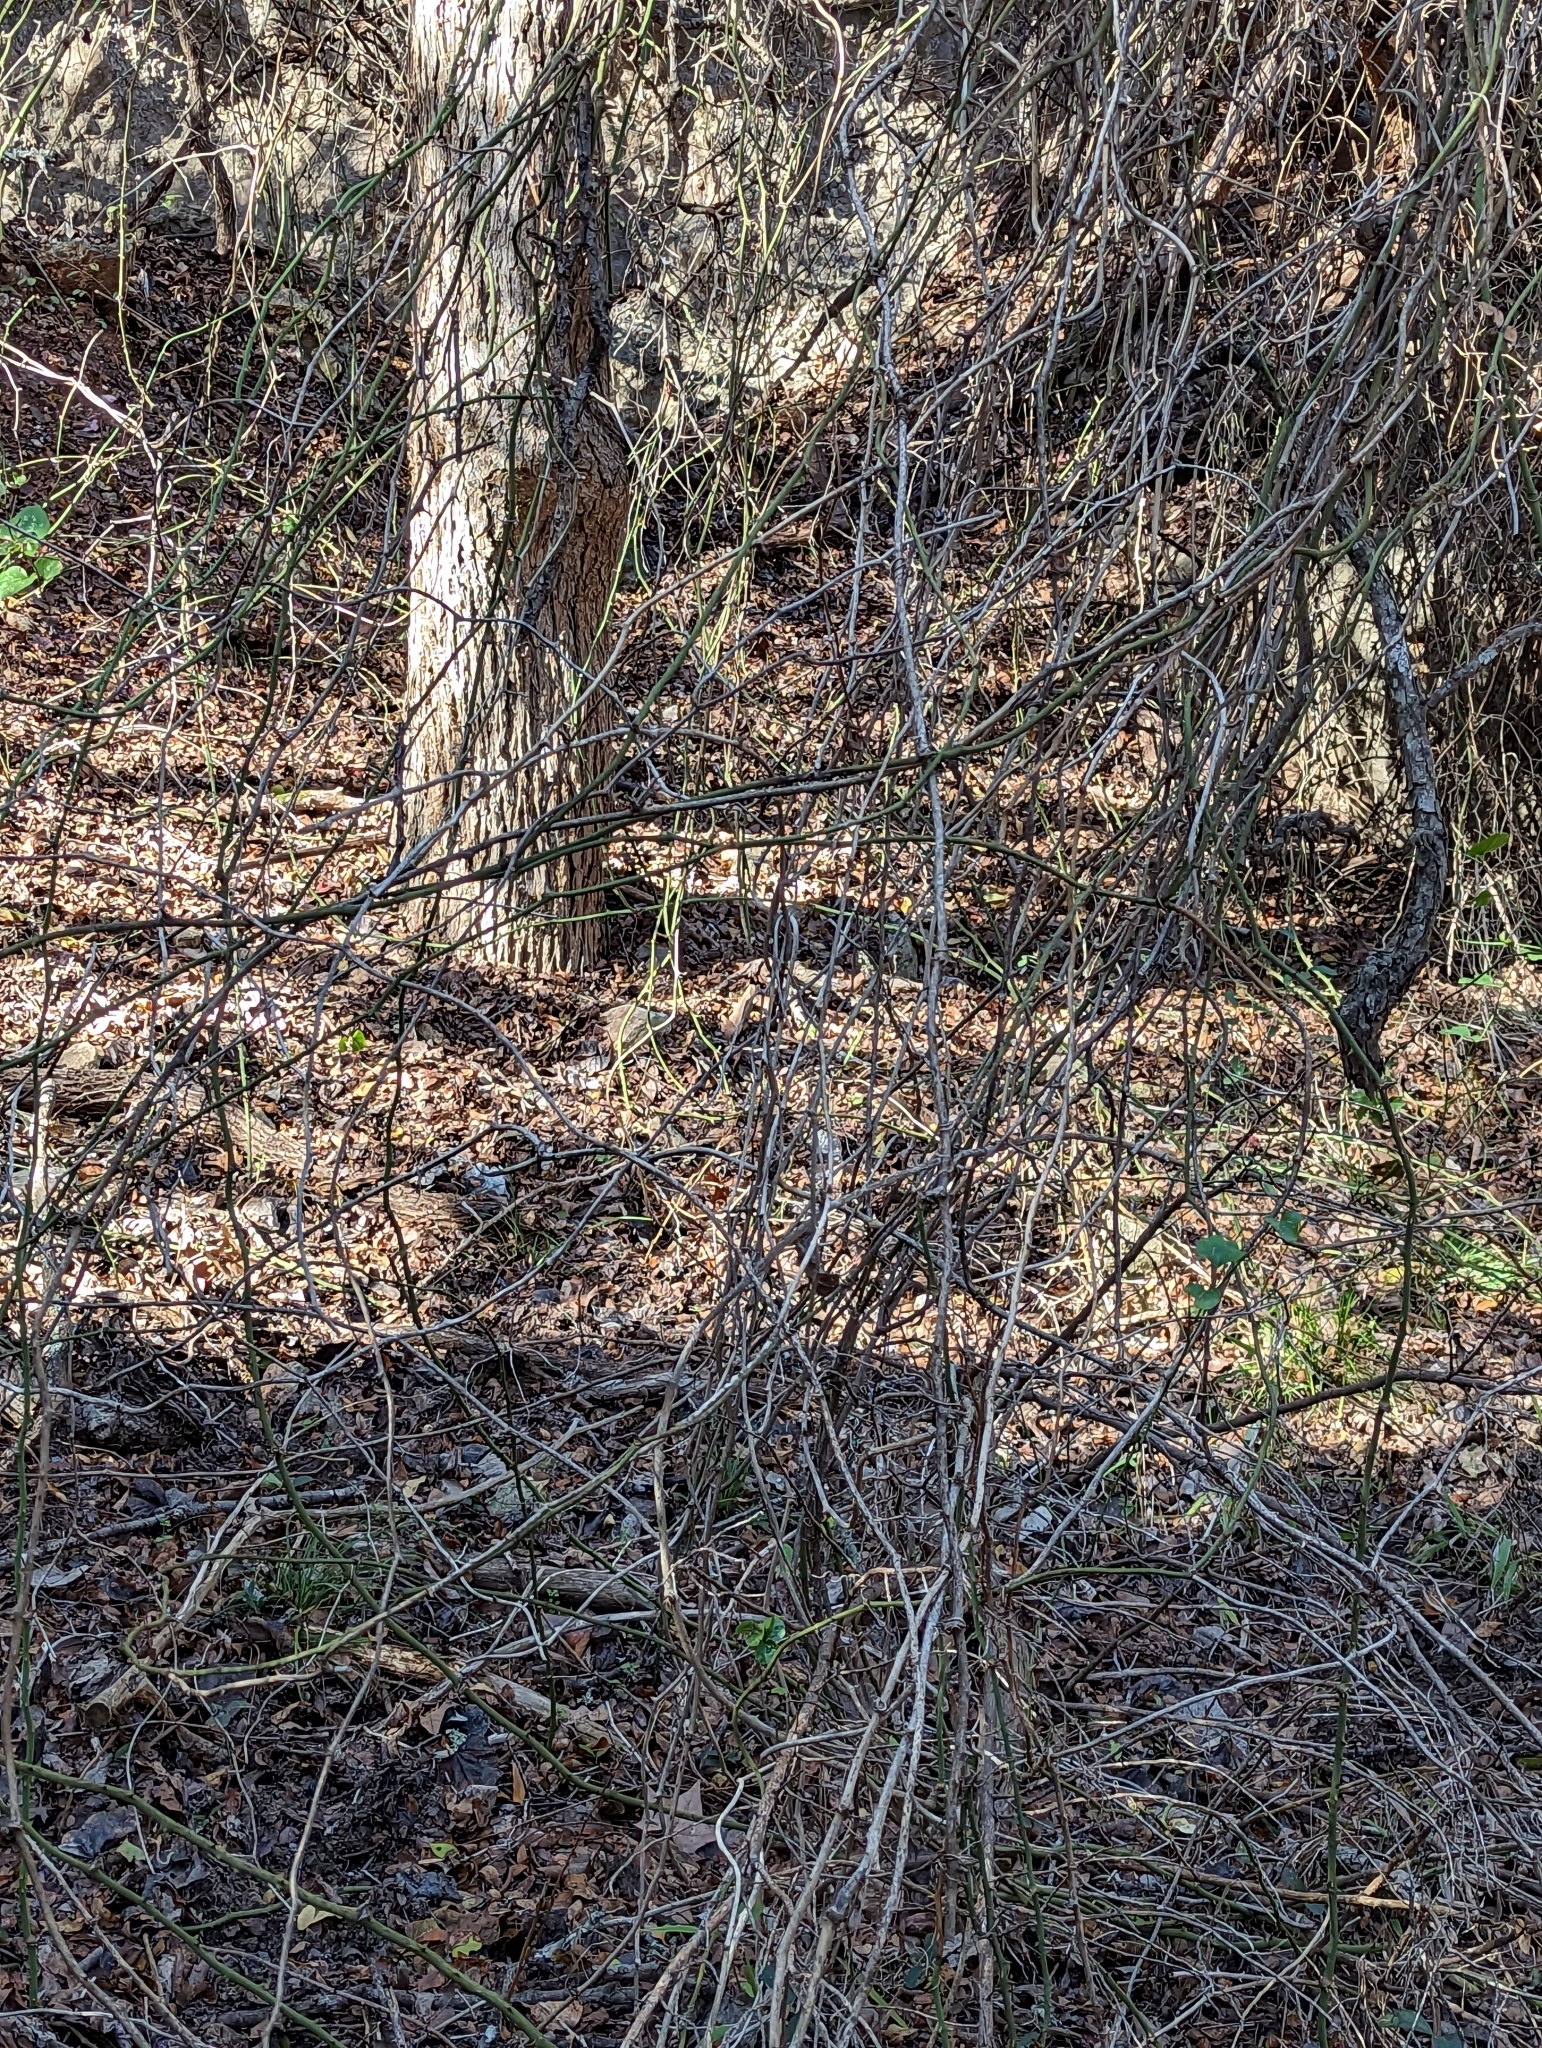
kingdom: Plantae
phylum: Tracheophyta
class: Liliopsida
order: Liliales
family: Smilacaceae
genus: Smilax
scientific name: Smilax bona-nox
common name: Catbrier
